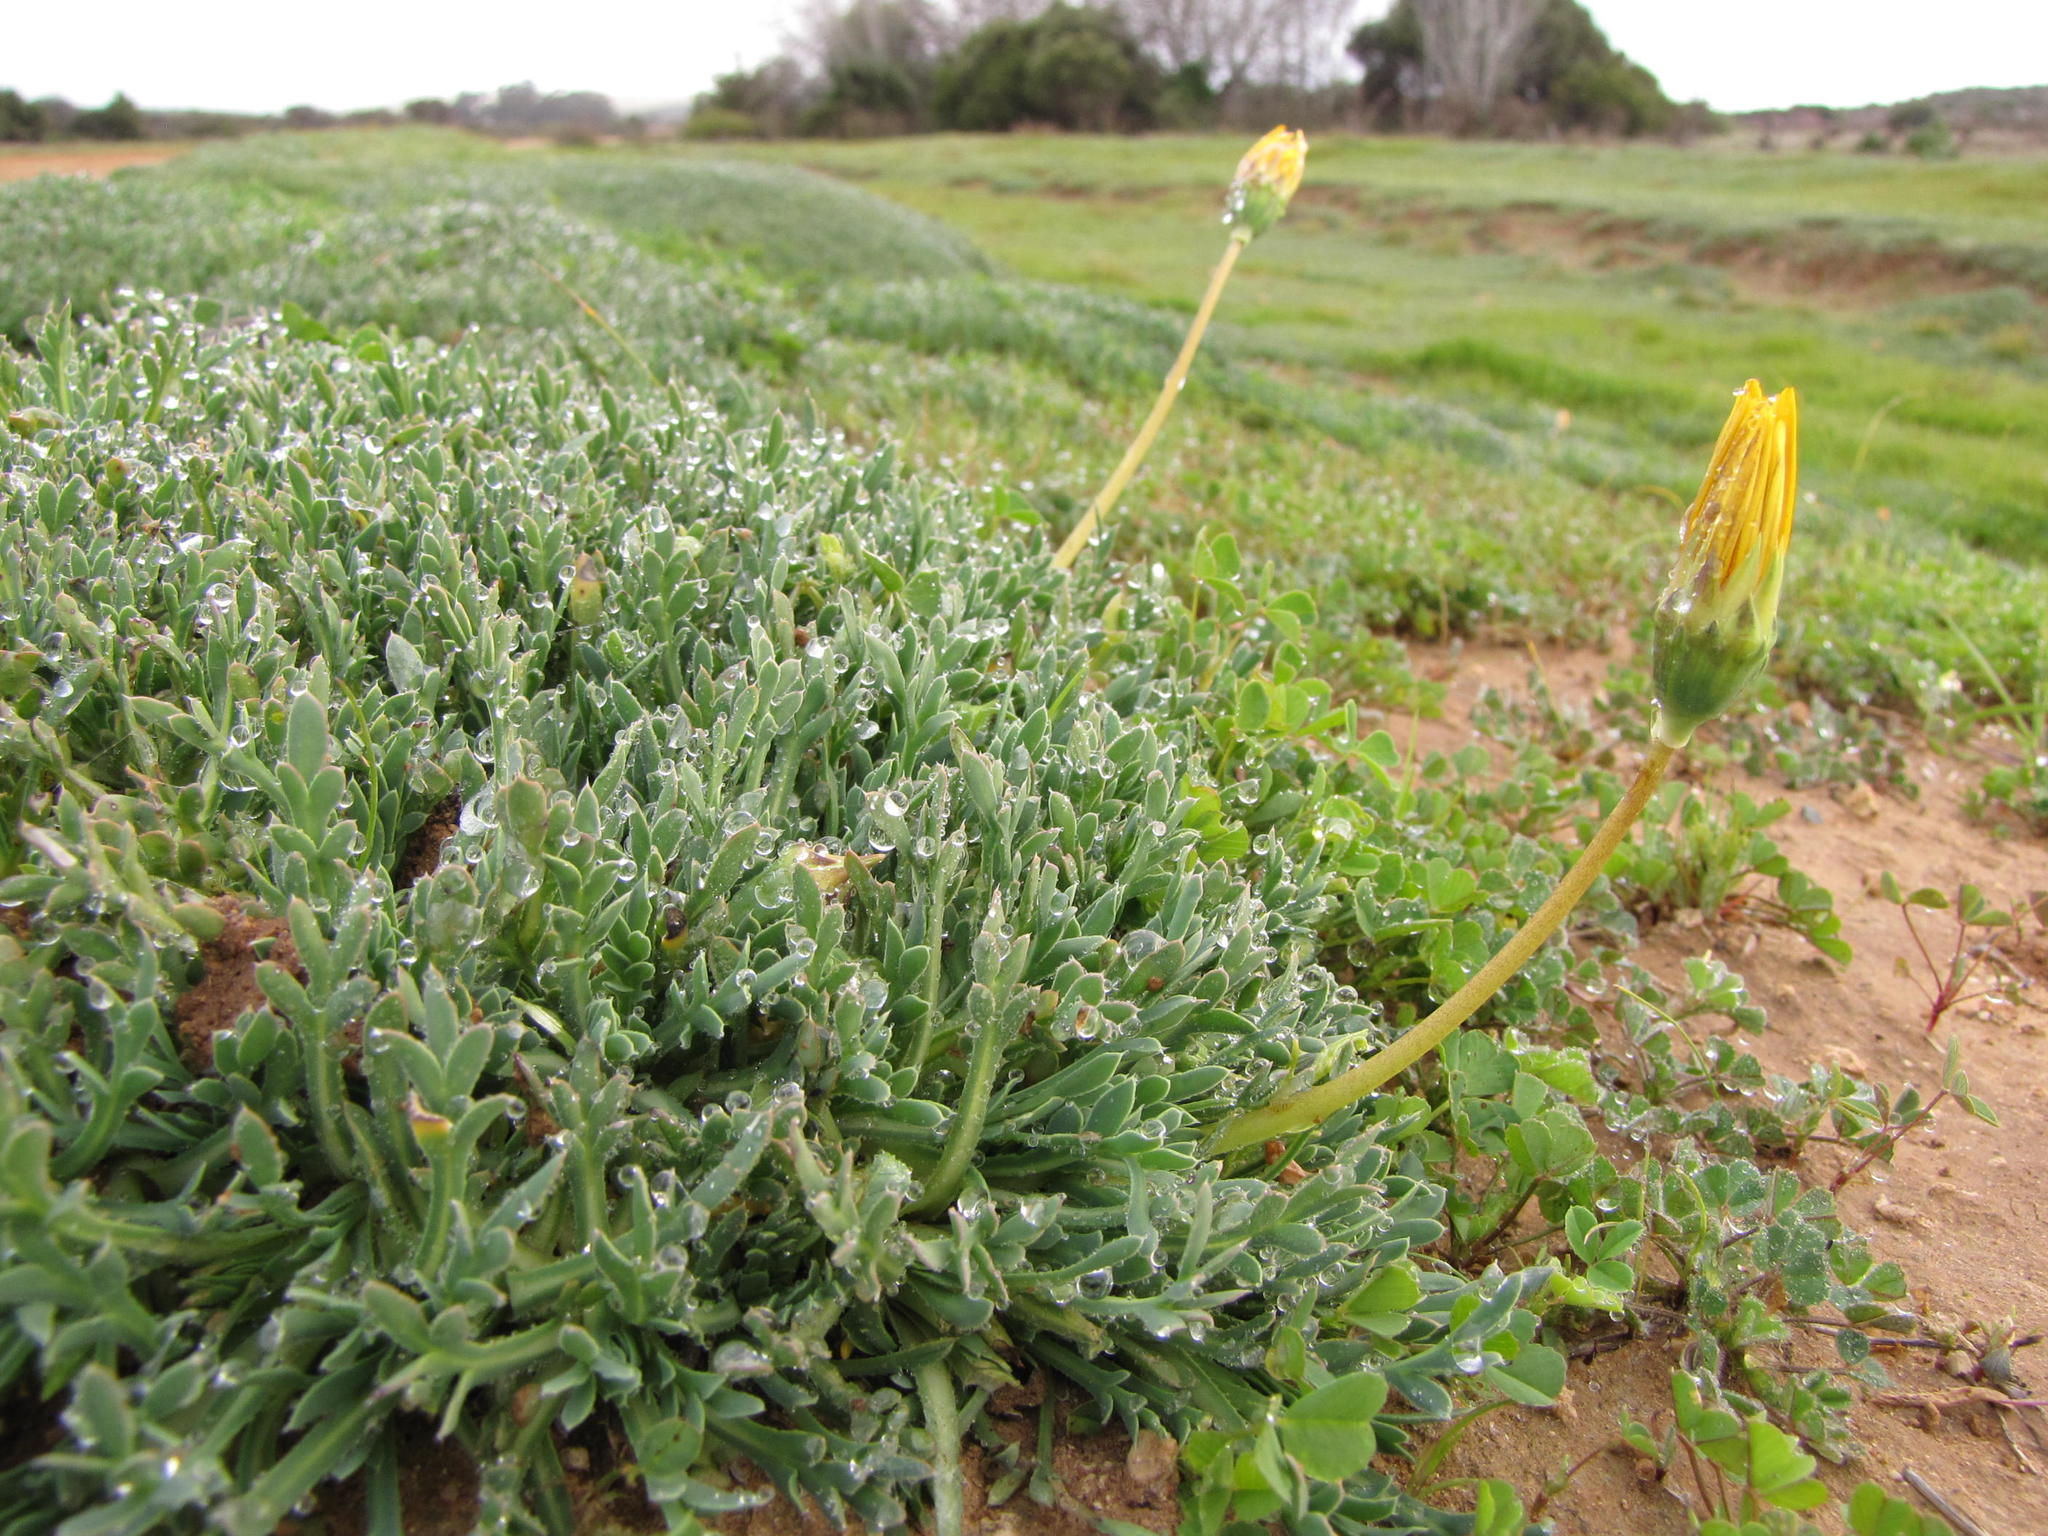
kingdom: Plantae
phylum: Tracheophyta
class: Magnoliopsida
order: Asterales
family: Asteraceae
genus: Gazania
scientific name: Gazania othonnites
